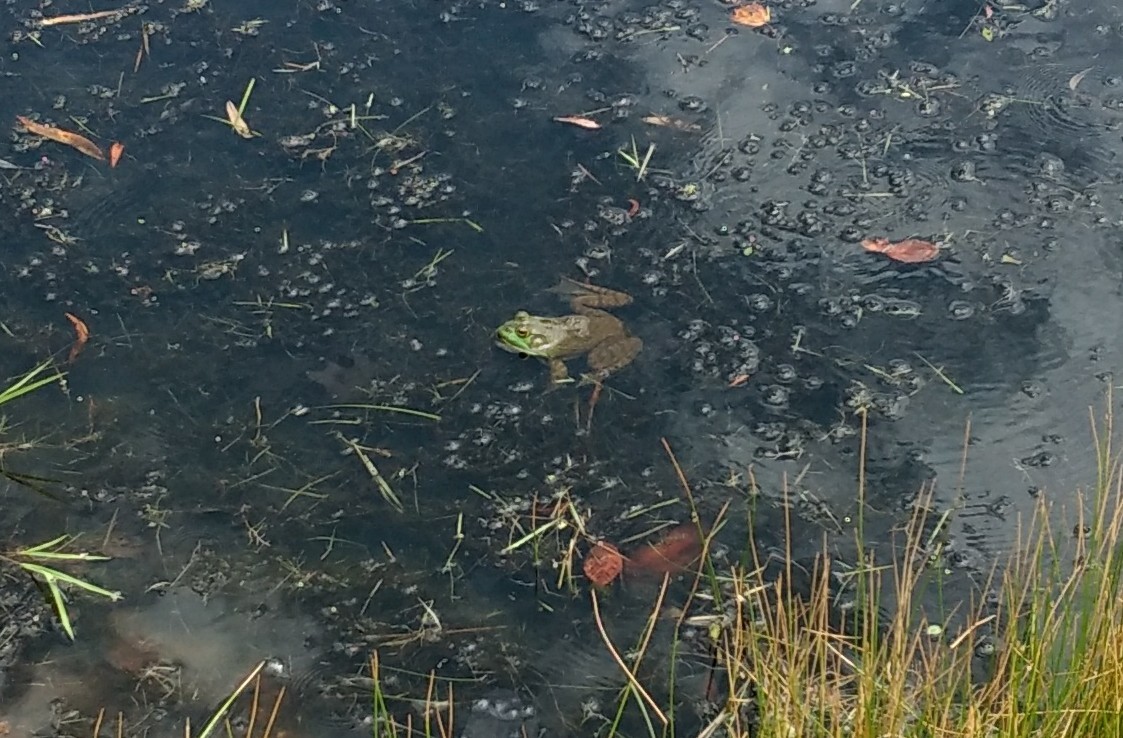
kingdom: Animalia
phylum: Chordata
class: Amphibia
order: Anura
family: Ranidae
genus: Lithobates
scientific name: Lithobates catesbeianus
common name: American bullfrog
